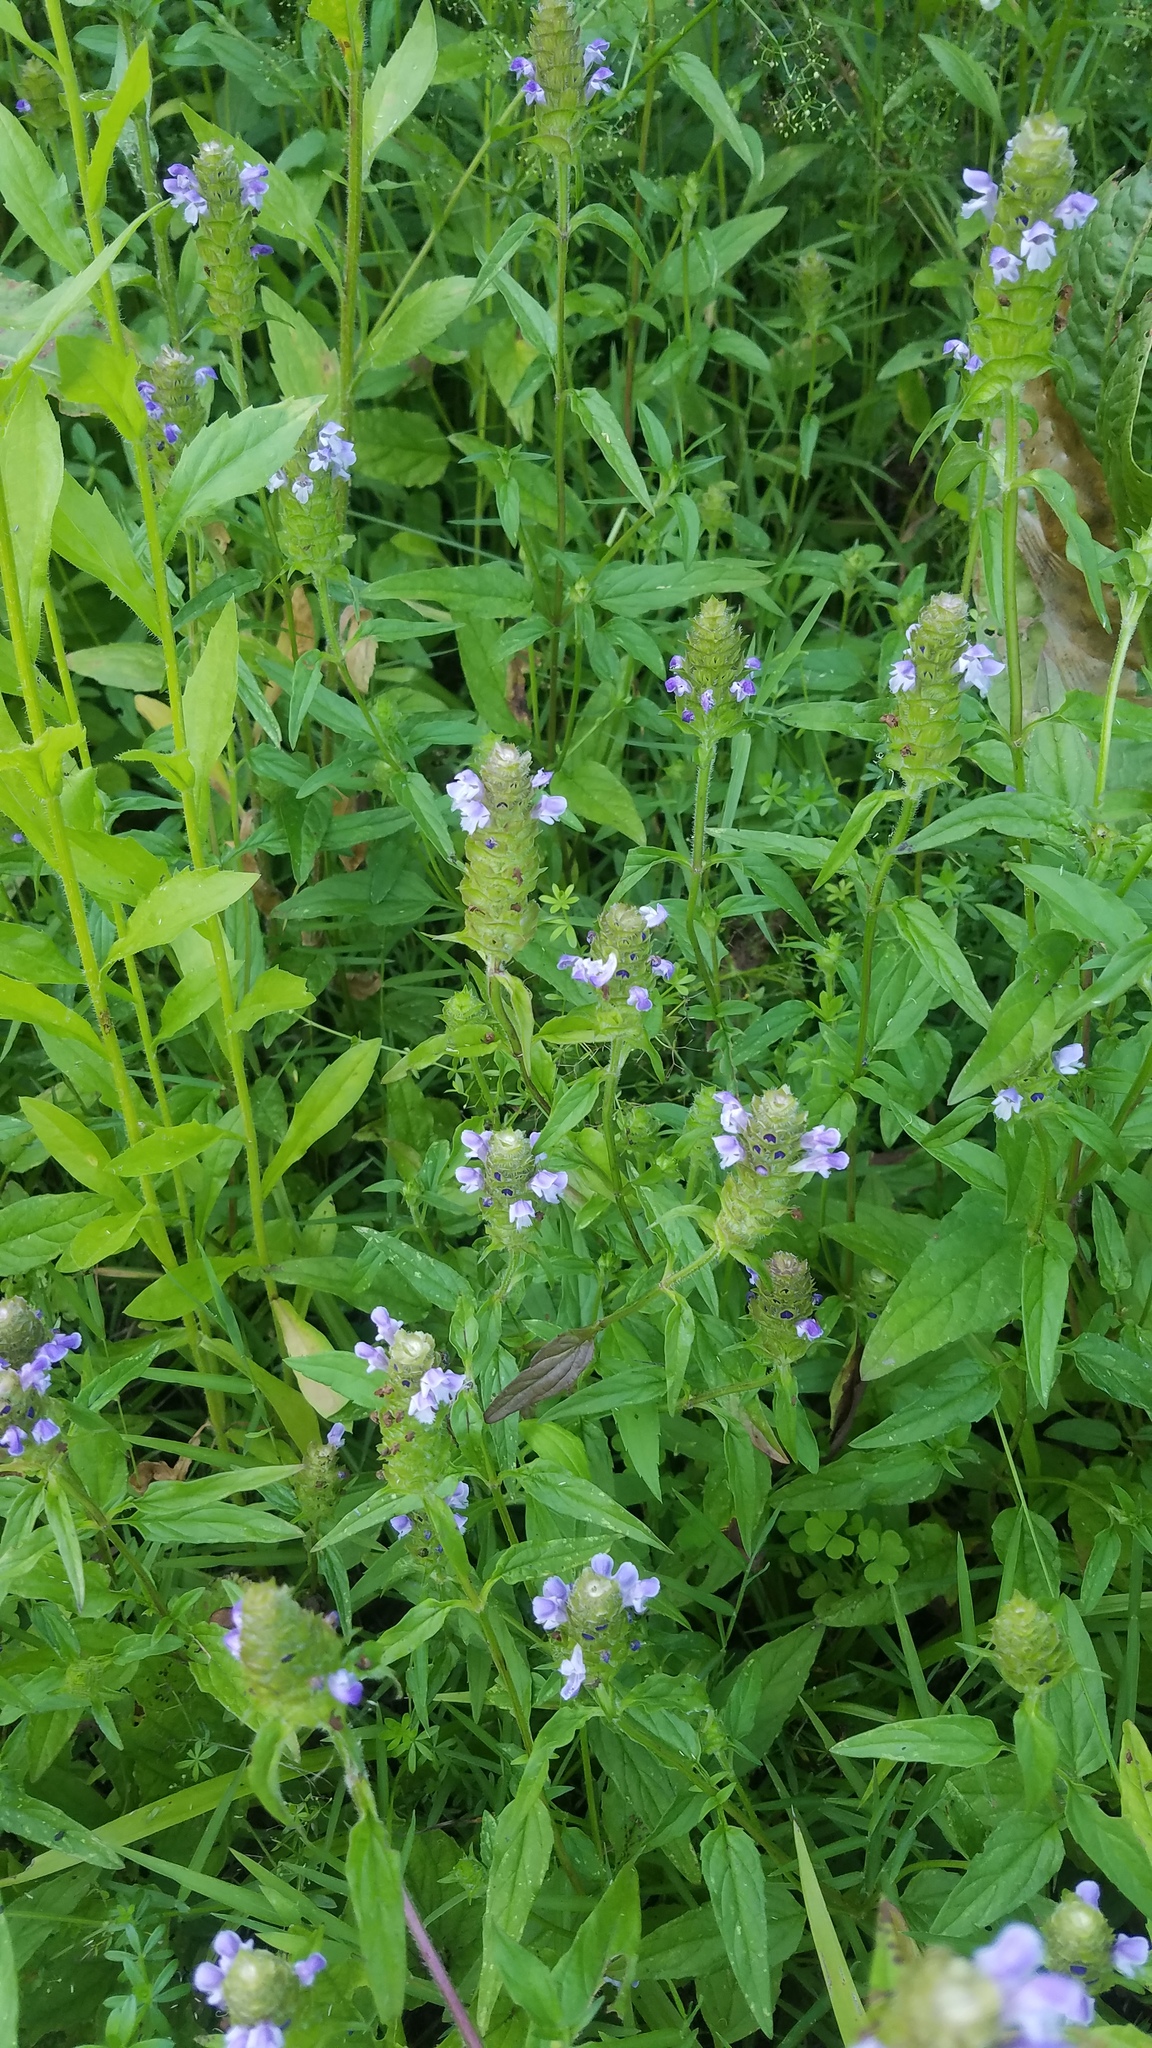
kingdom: Plantae
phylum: Tracheophyta
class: Magnoliopsida
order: Lamiales
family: Lamiaceae
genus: Prunella
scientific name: Prunella vulgaris
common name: Heal-all
